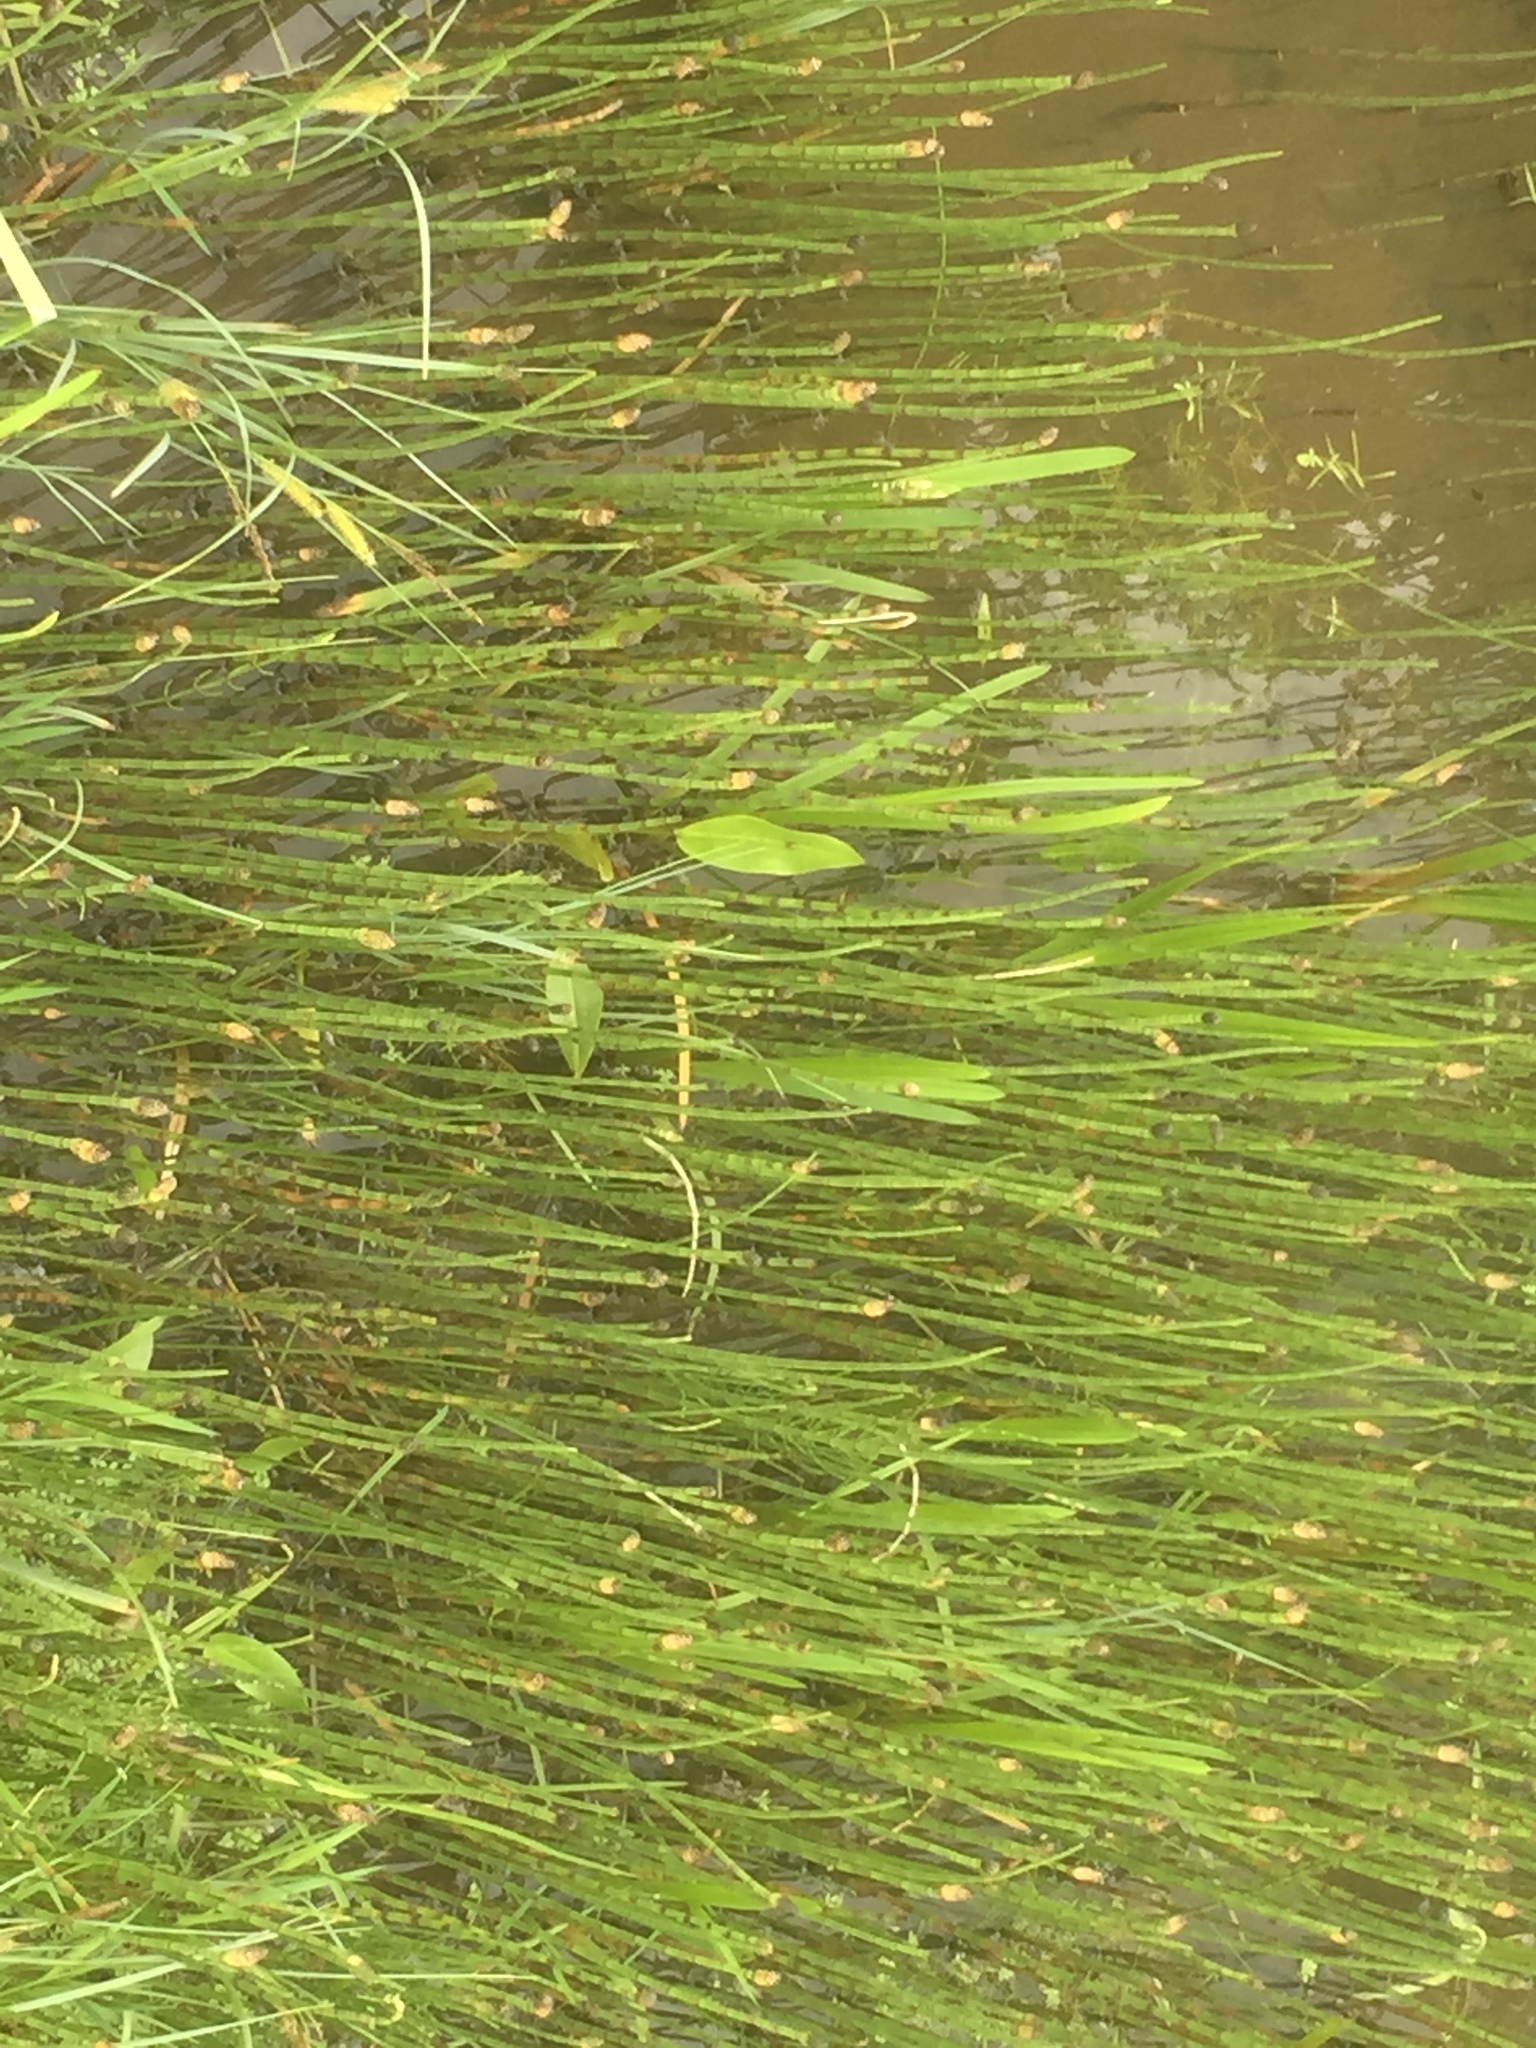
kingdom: Plantae
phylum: Tracheophyta
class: Polypodiopsida
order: Equisetales
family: Equisetaceae
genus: Equisetum
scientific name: Equisetum fluviatile
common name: Water horsetail
